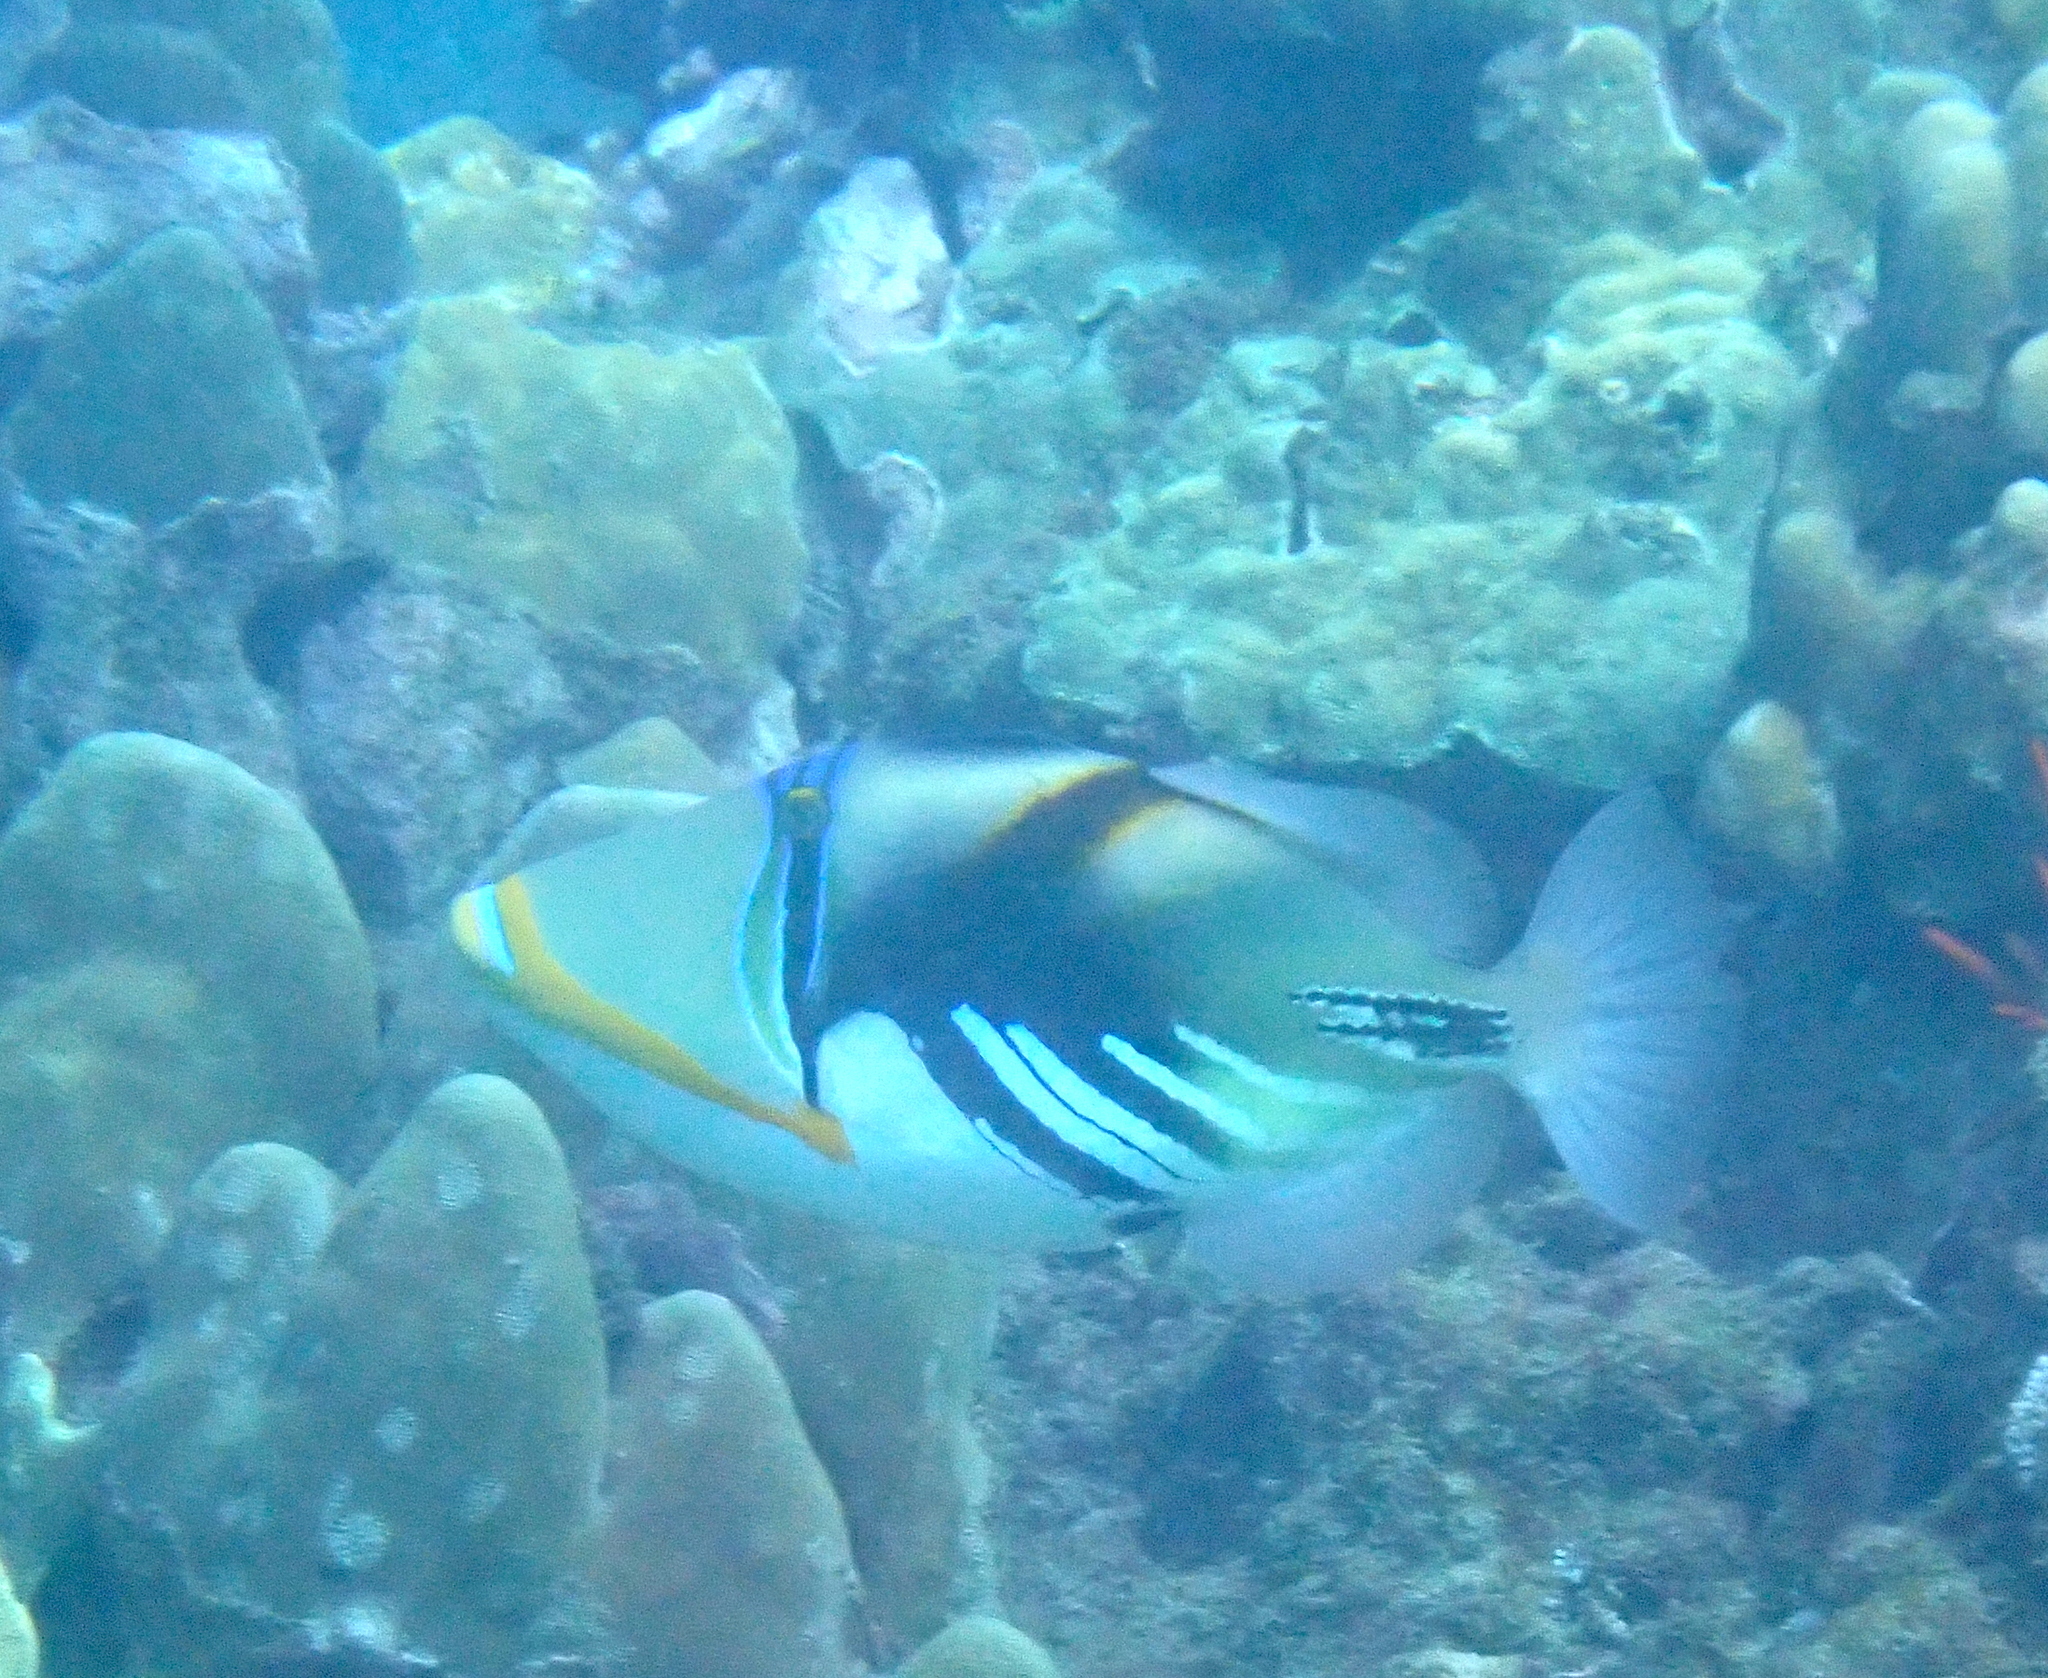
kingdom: Animalia
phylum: Chordata
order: Tetraodontiformes
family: Balistidae
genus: Rhinecanthus
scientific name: Rhinecanthus aculeatus
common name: White-banded triggerfish
